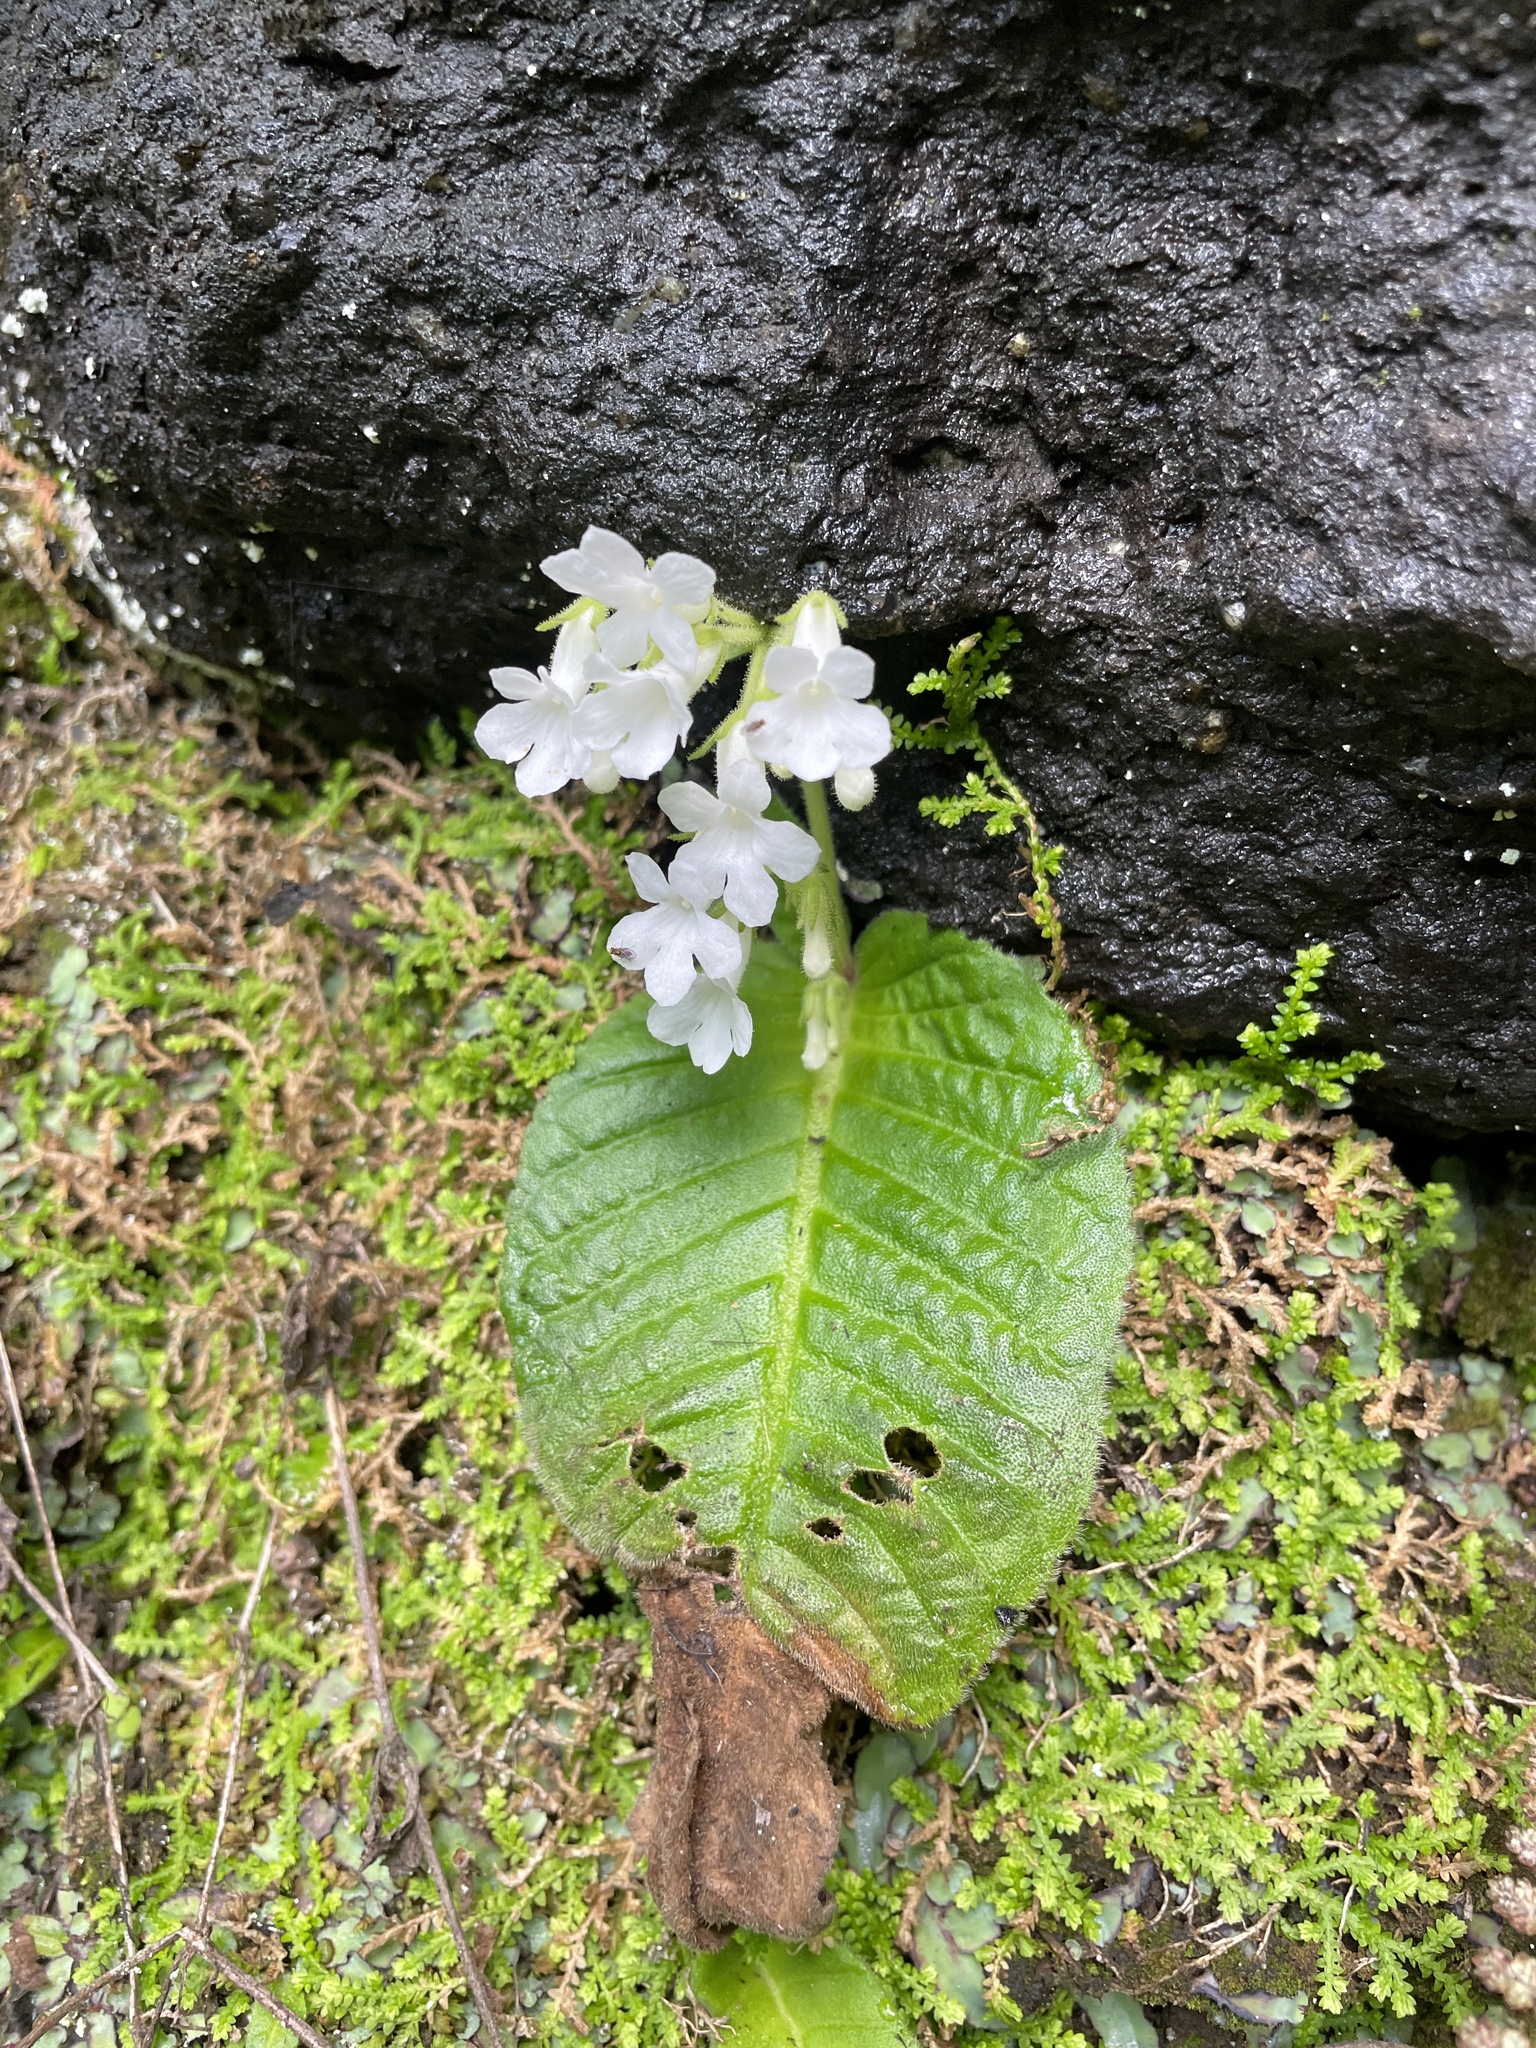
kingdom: Plantae
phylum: Tracheophyta
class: Magnoliopsida
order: Lamiales
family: Gesneriaceae
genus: Streptocarpus
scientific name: Streptocarpus pusillus
